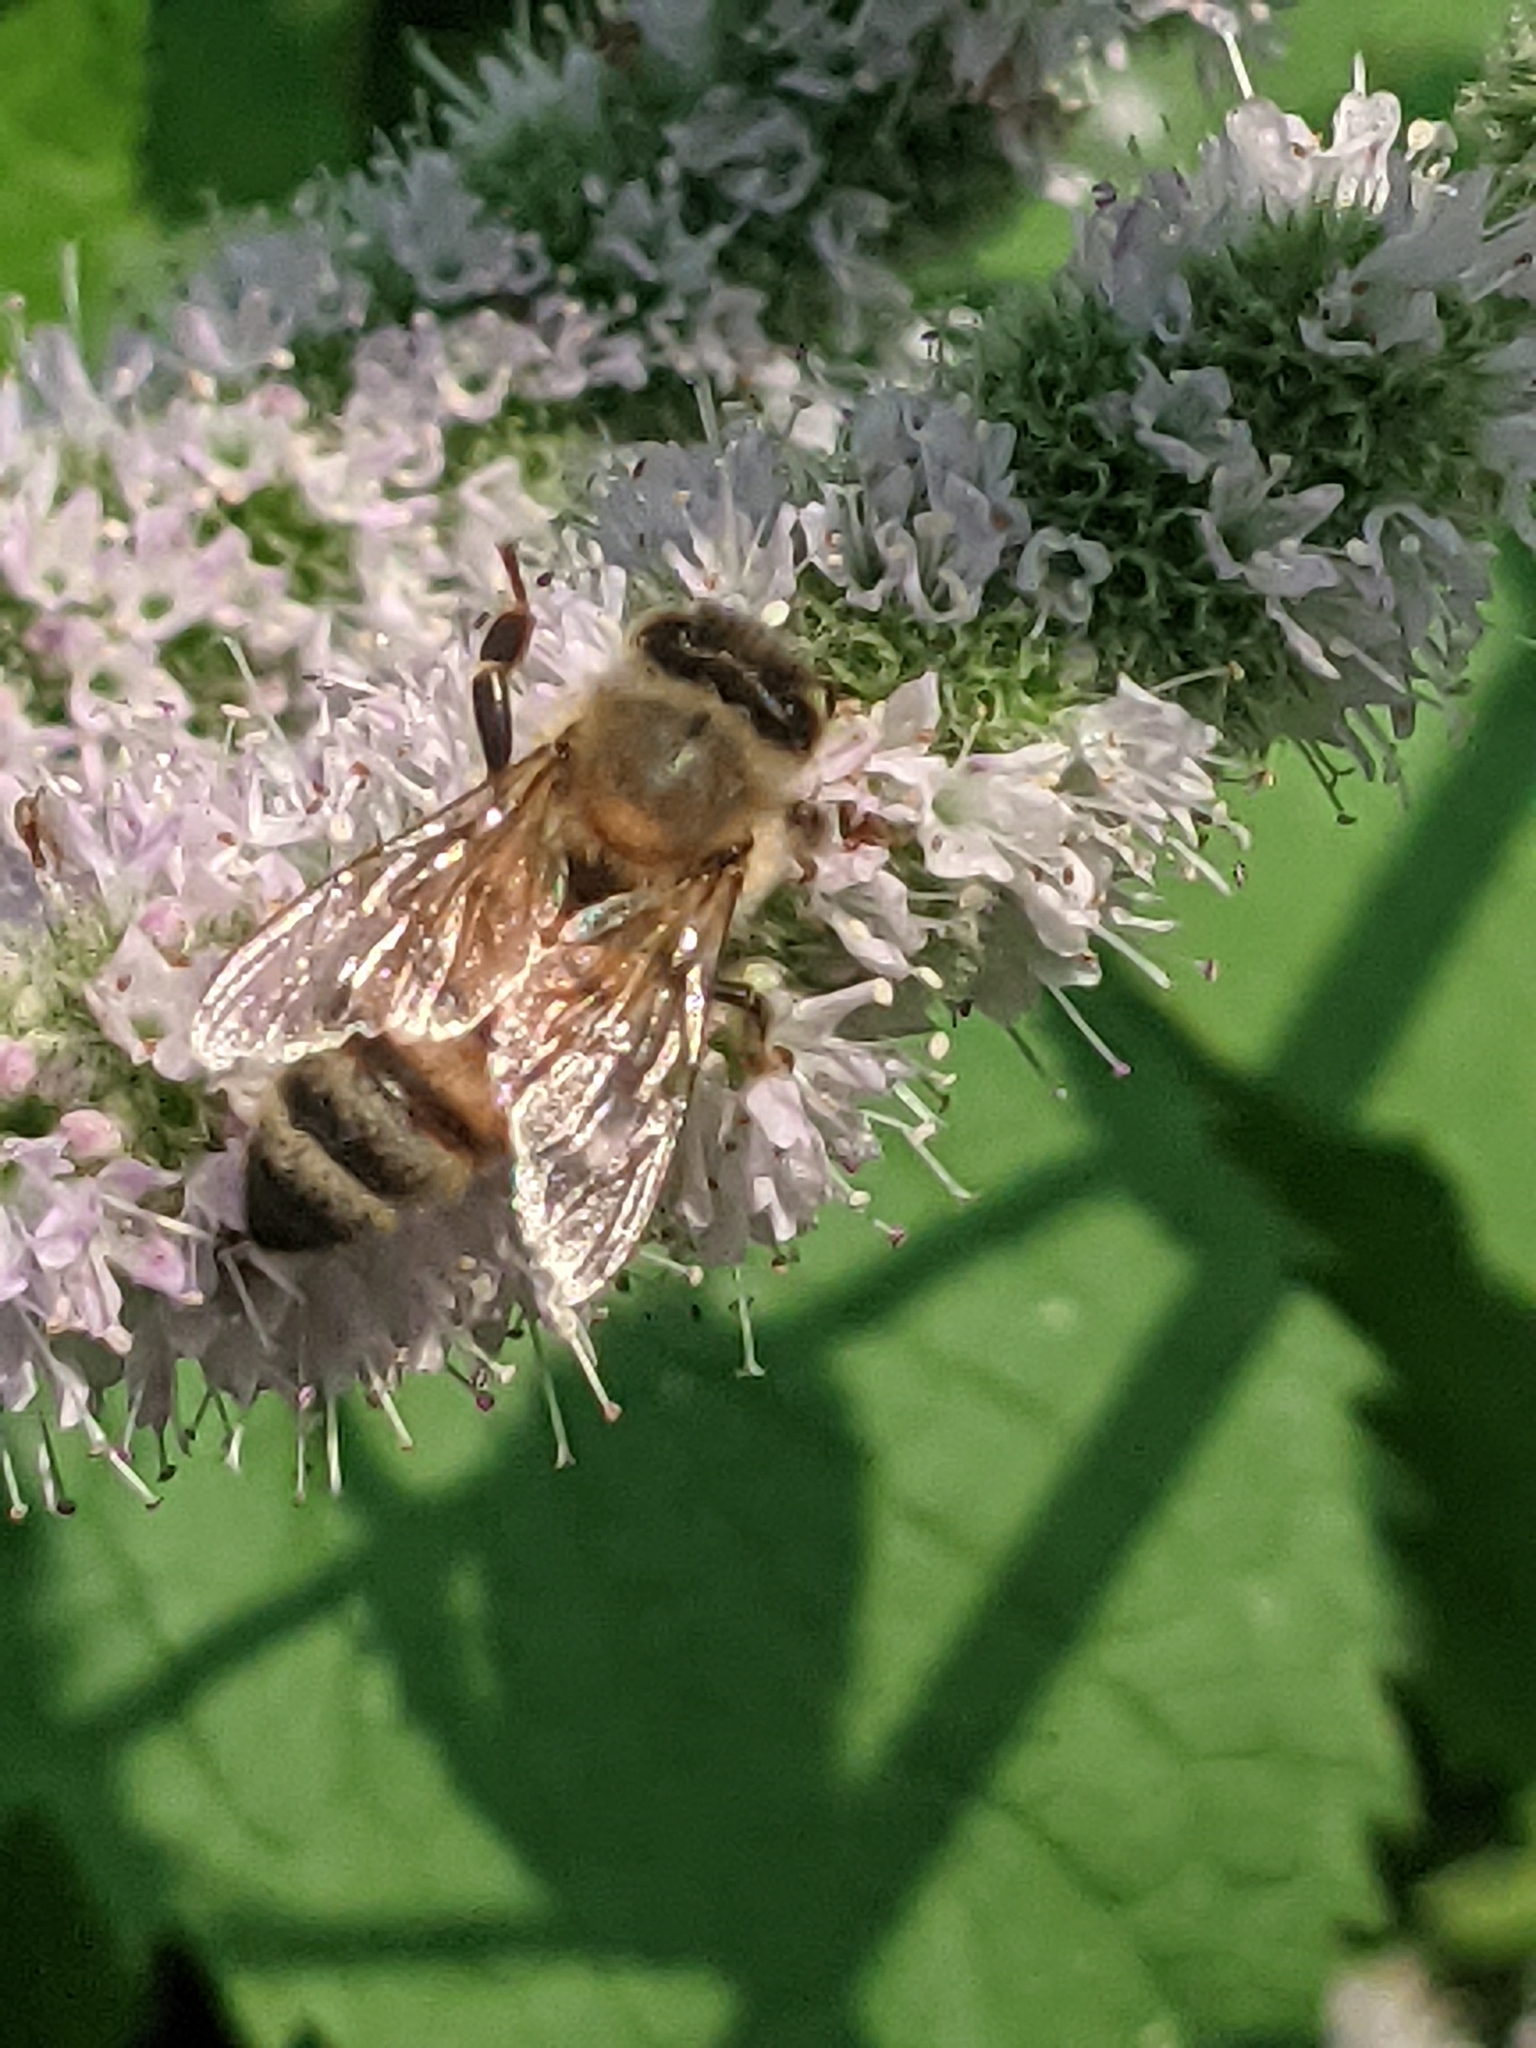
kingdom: Animalia
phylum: Arthropoda
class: Insecta
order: Hymenoptera
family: Apidae
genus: Apis
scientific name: Apis mellifera
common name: Honey bee
